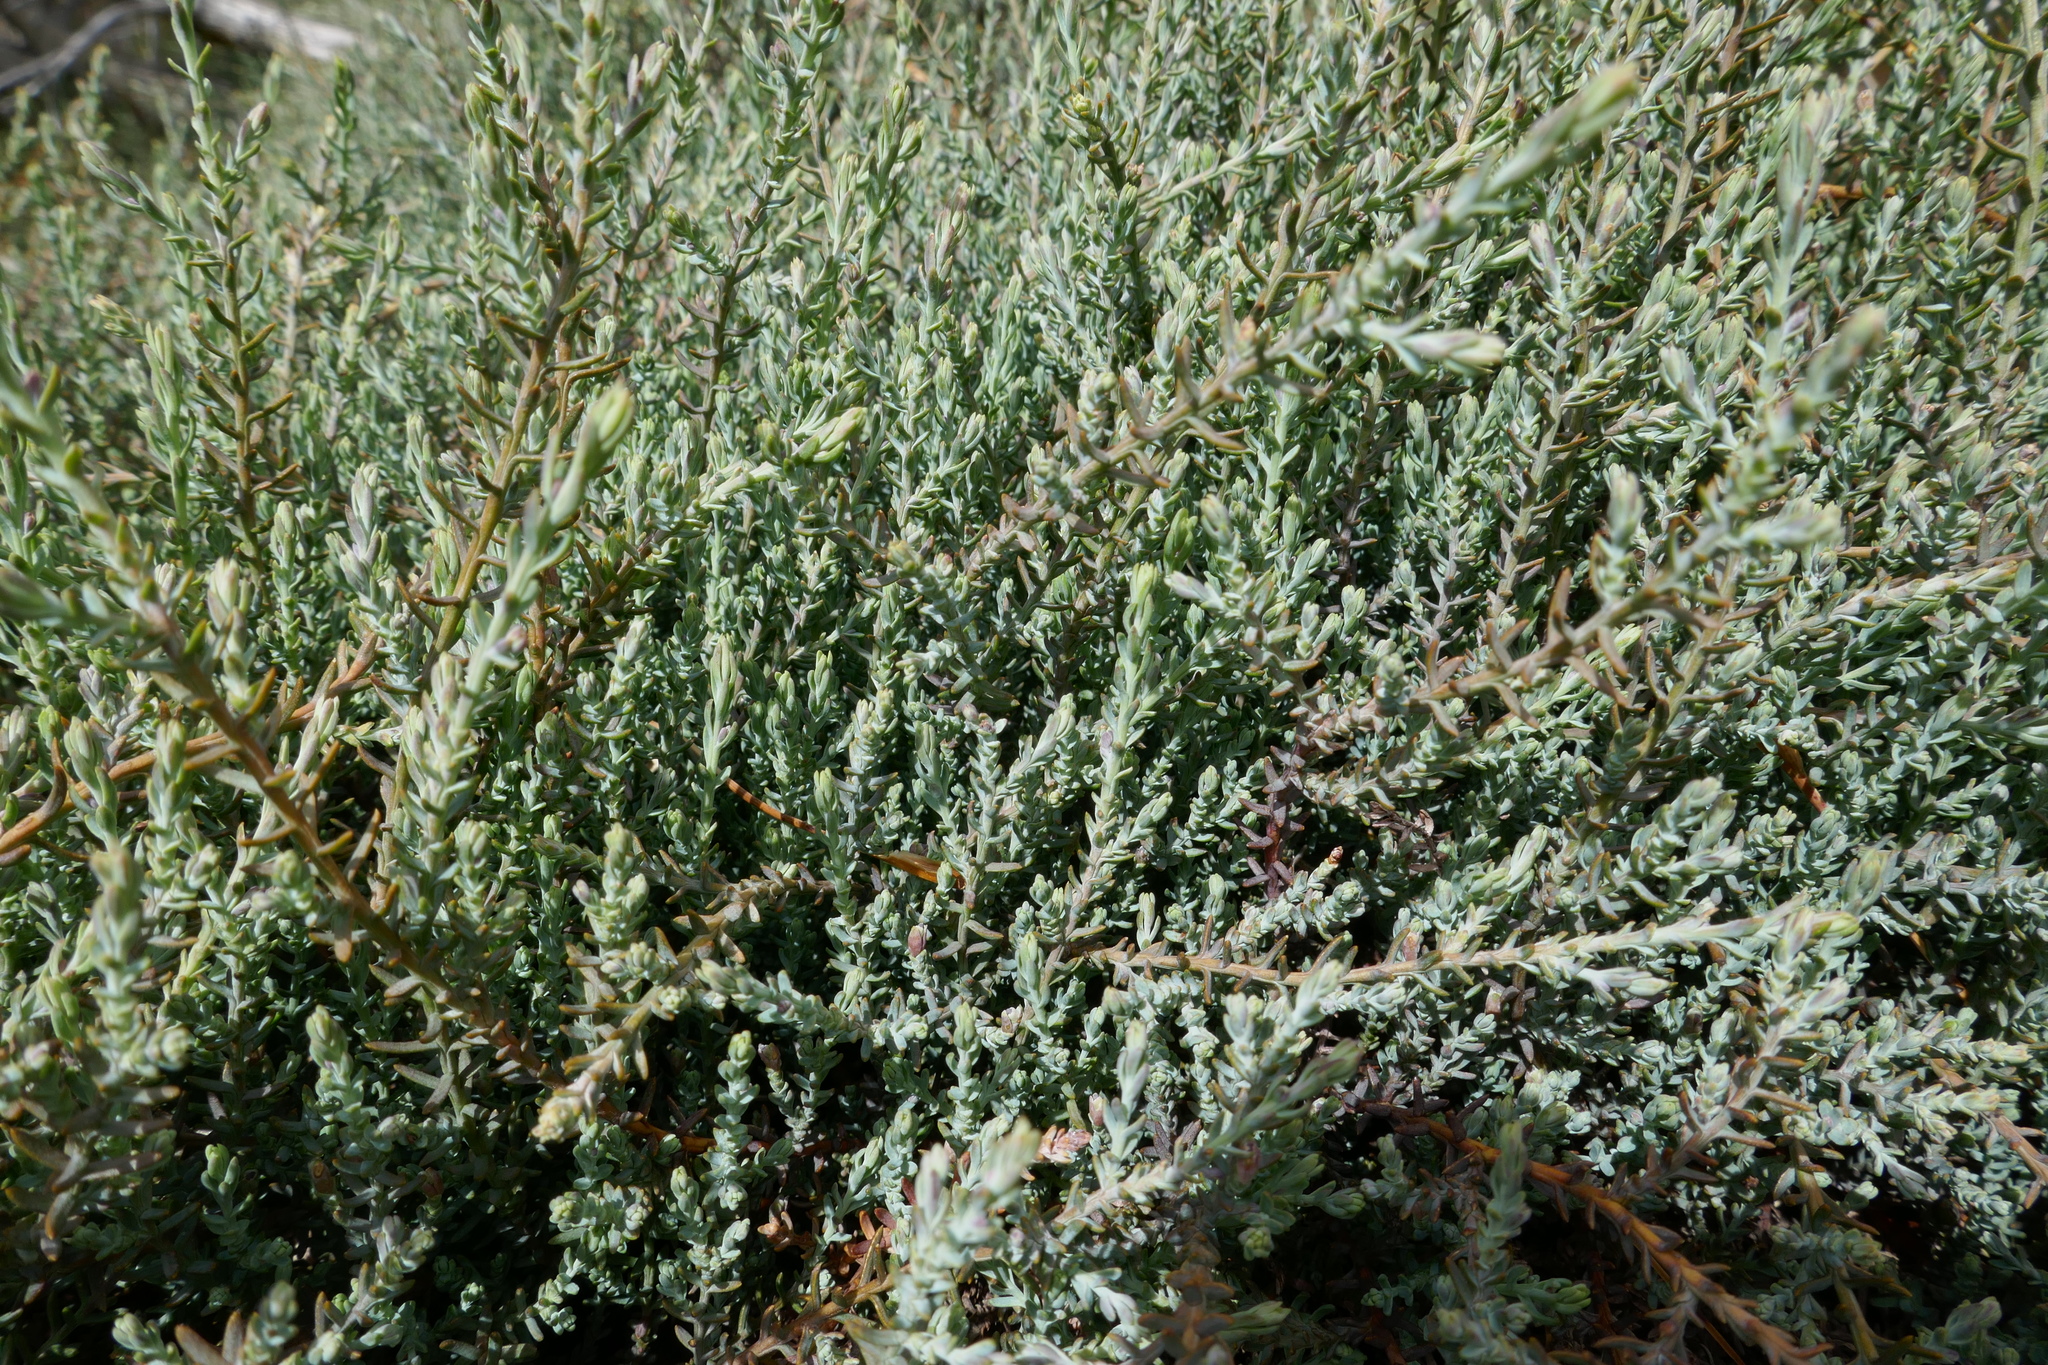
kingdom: Plantae
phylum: Tracheophyta
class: Pinopsida
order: Pinales
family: Podocarpaceae
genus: Lepidothamnus
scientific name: Lepidothamnus laxifolius
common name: Pygmy pine
